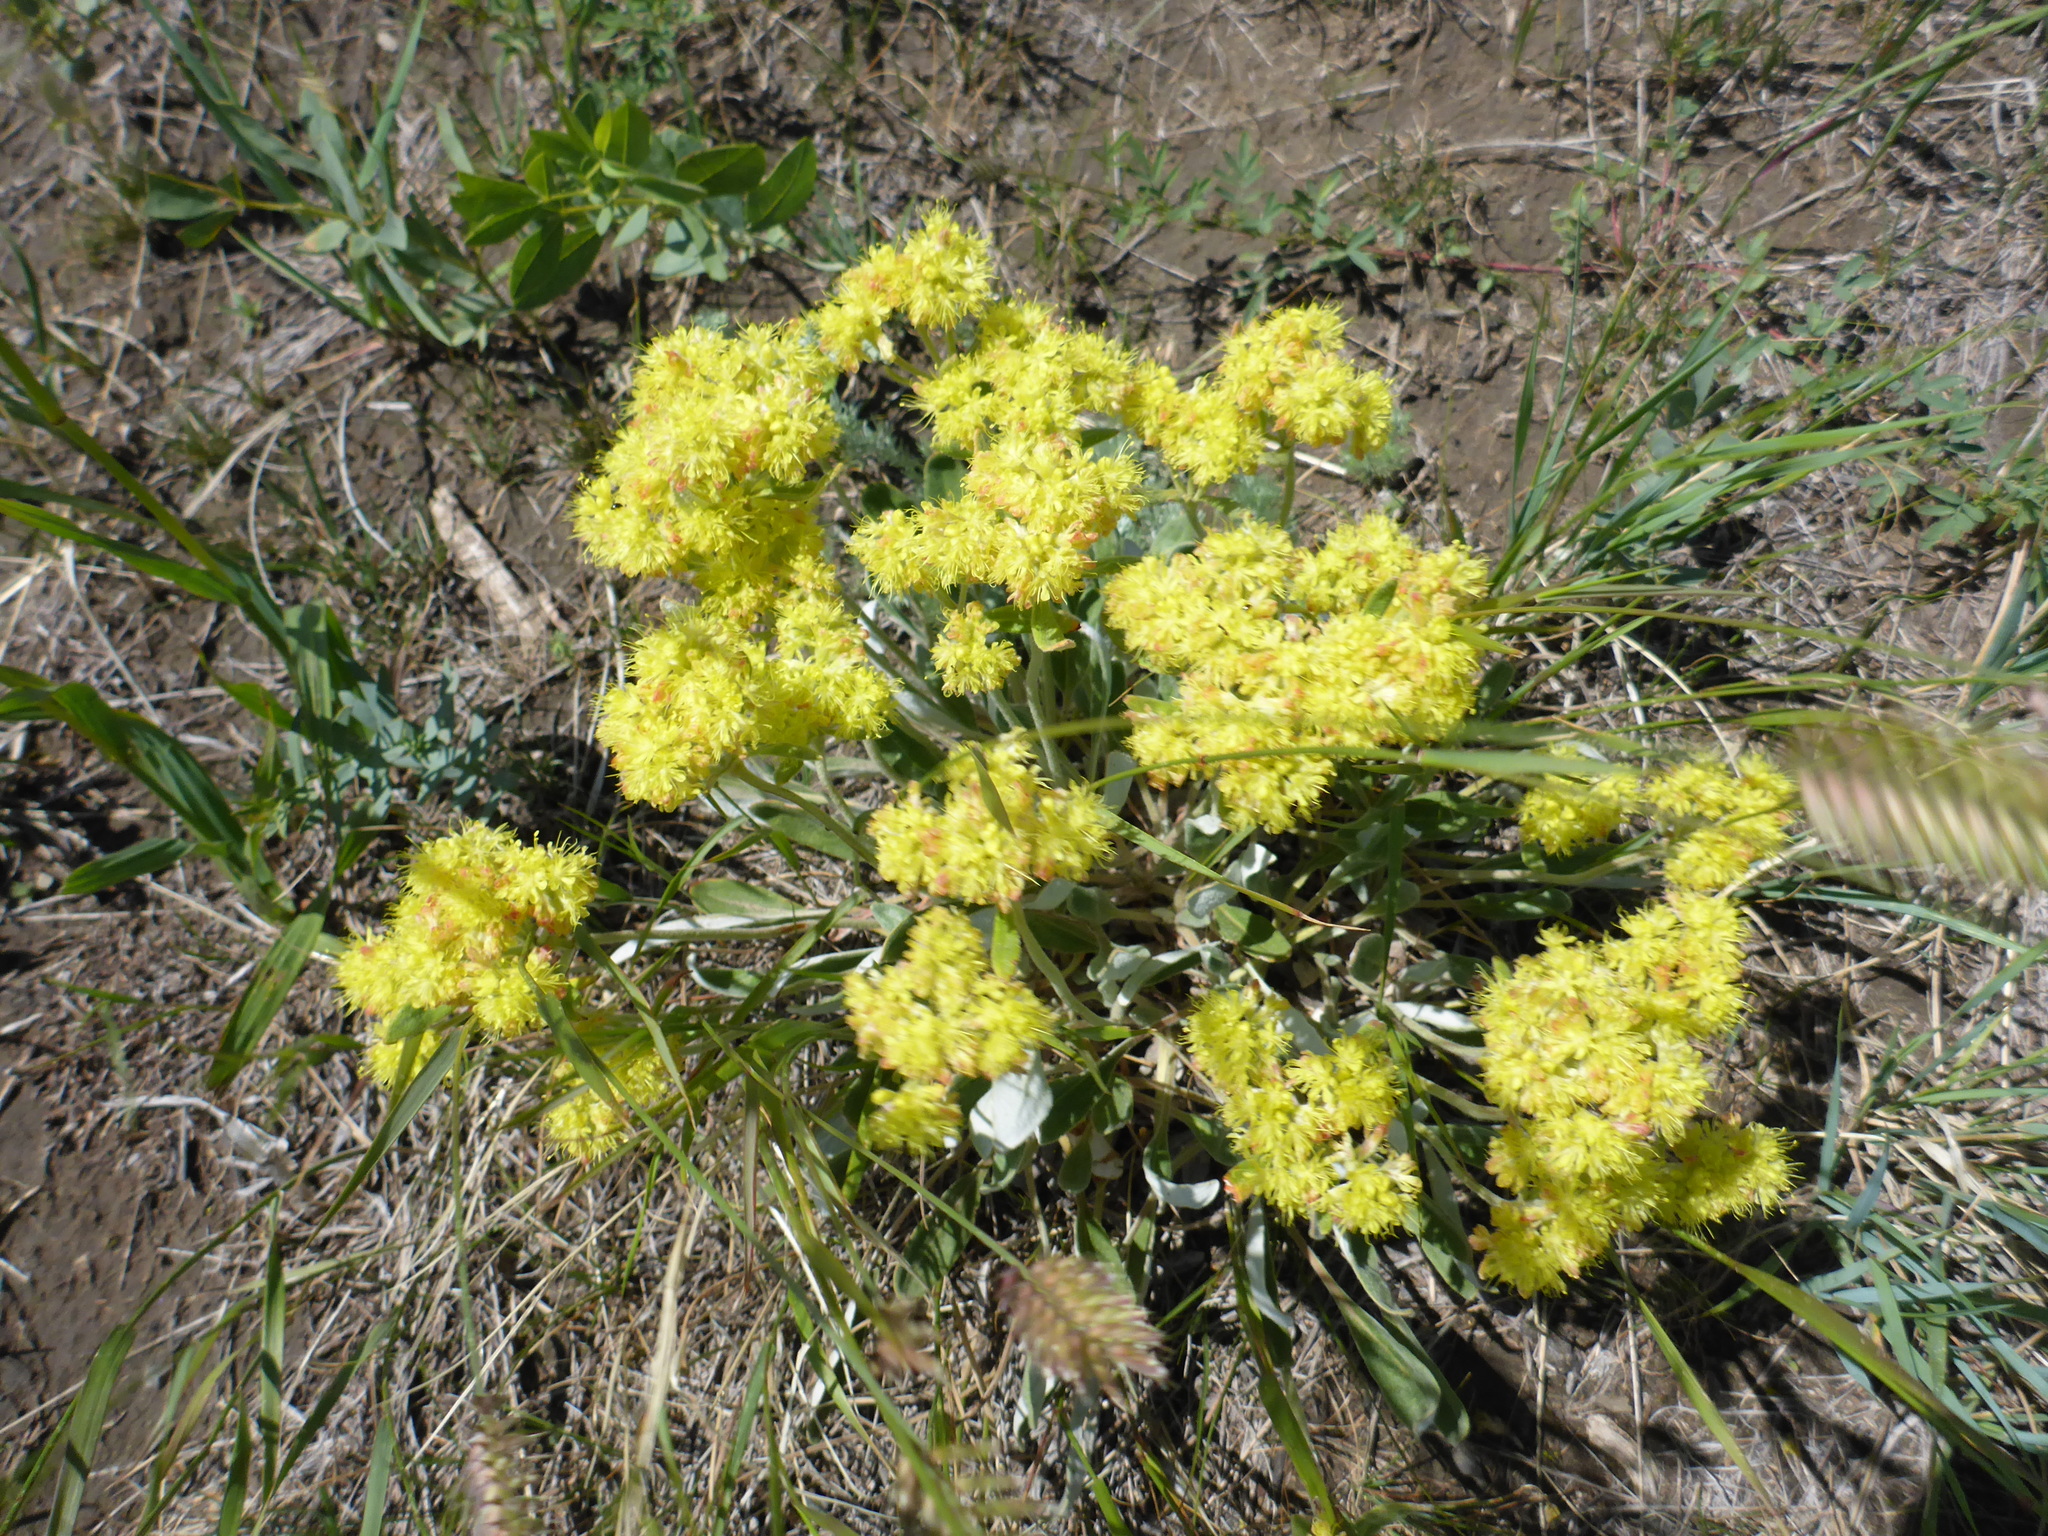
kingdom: Plantae
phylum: Tracheophyta
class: Magnoliopsida
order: Caryophyllales
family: Polygonaceae
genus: Eriogonum
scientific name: Eriogonum flavum
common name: Alpine golden wild buckwheat
